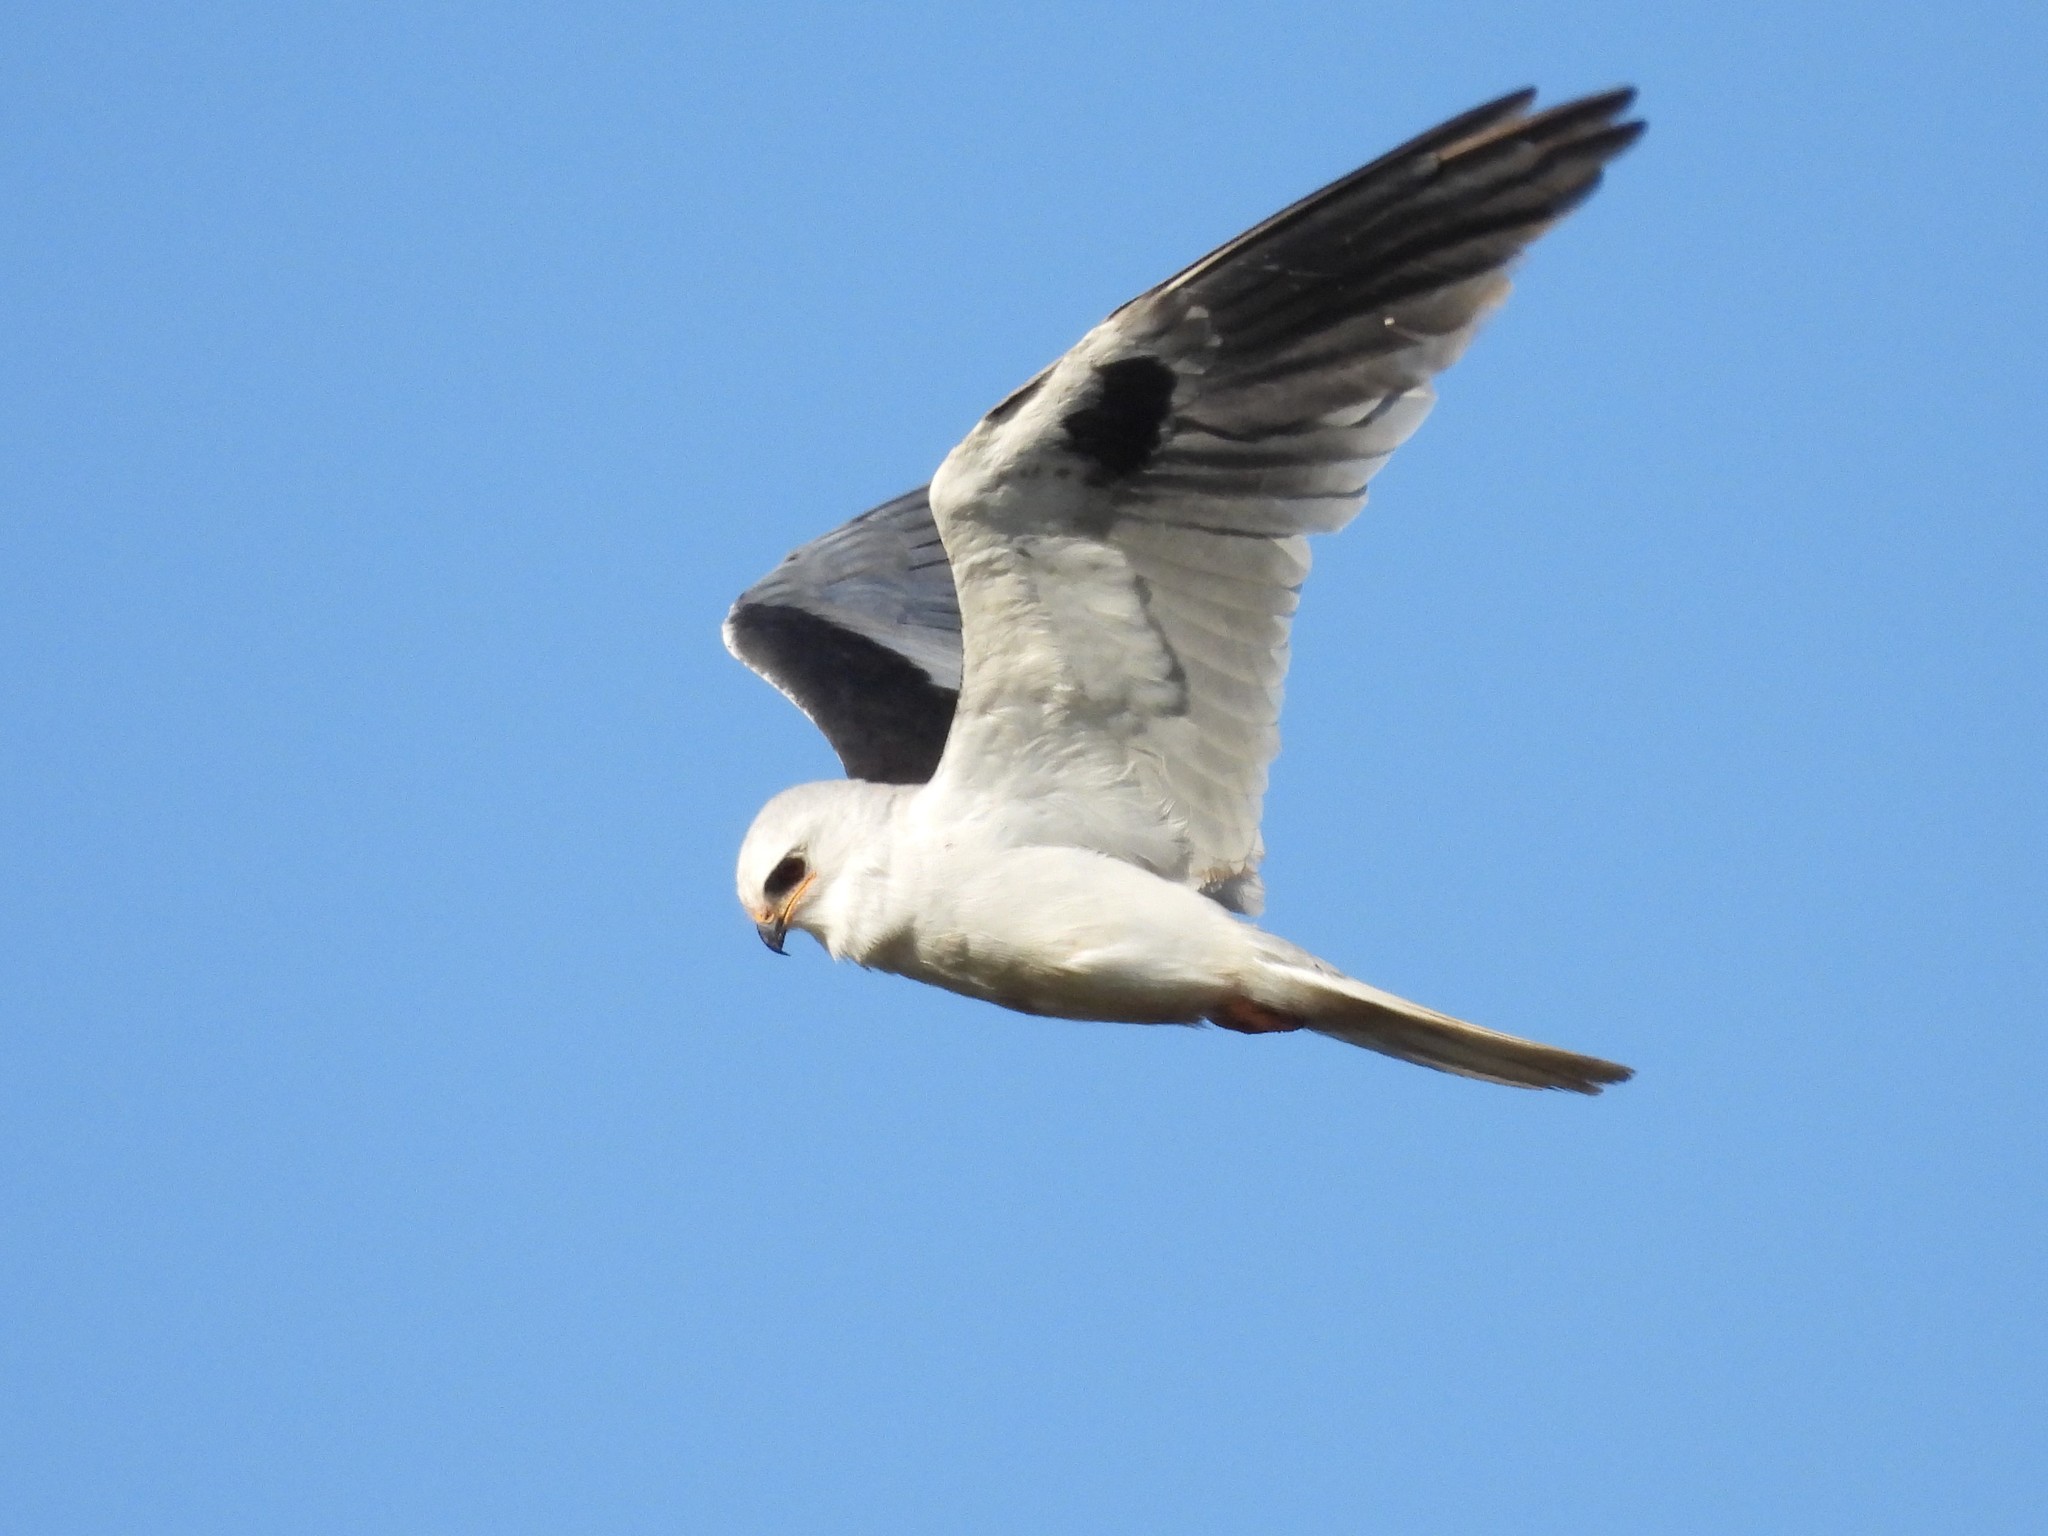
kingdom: Animalia
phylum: Chordata
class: Aves
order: Accipitriformes
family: Accipitridae
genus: Elanus
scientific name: Elanus leucurus
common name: White-tailed kite
